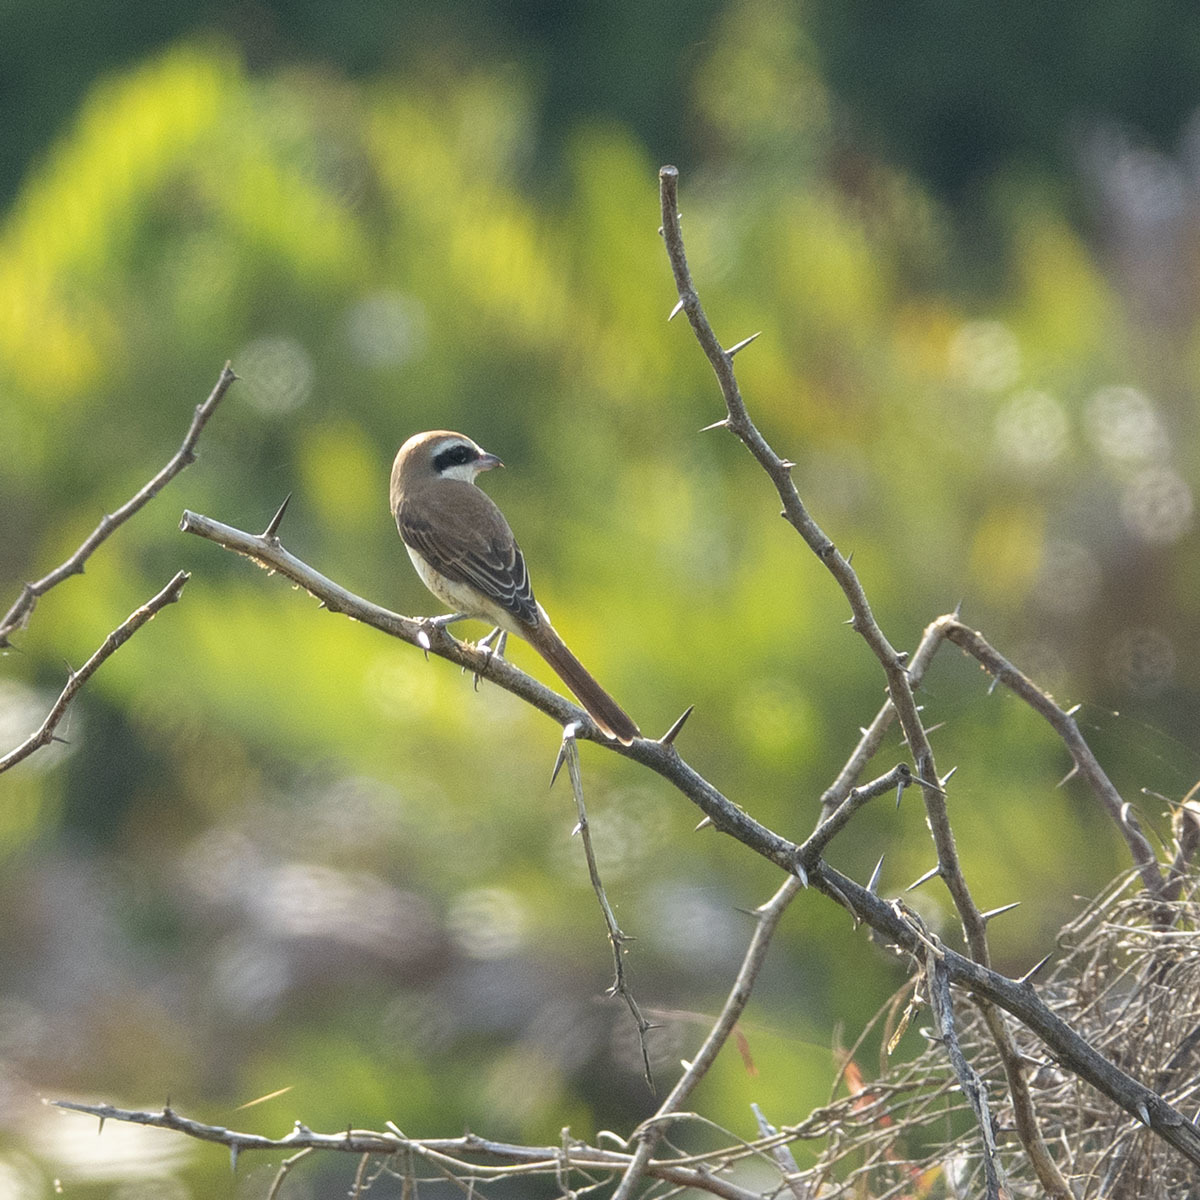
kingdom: Animalia
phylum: Chordata
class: Aves
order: Passeriformes
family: Laniidae
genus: Lanius
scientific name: Lanius cristatus
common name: Brown shrike
